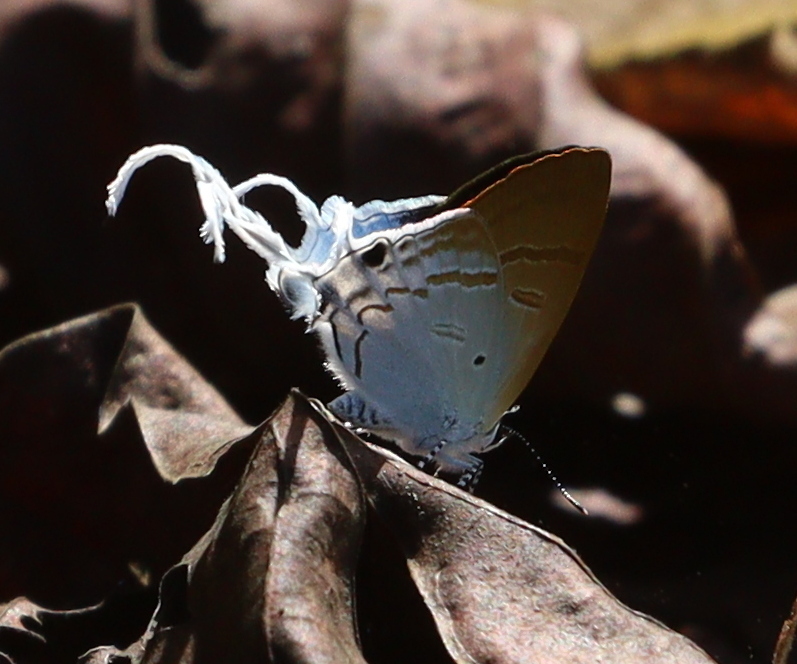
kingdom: Animalia
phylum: Arthropoda
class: Insecta
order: Lepidoptera
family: Lycaenidae
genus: Zeltus
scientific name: Zeltus amasa
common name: Fluffy tit
